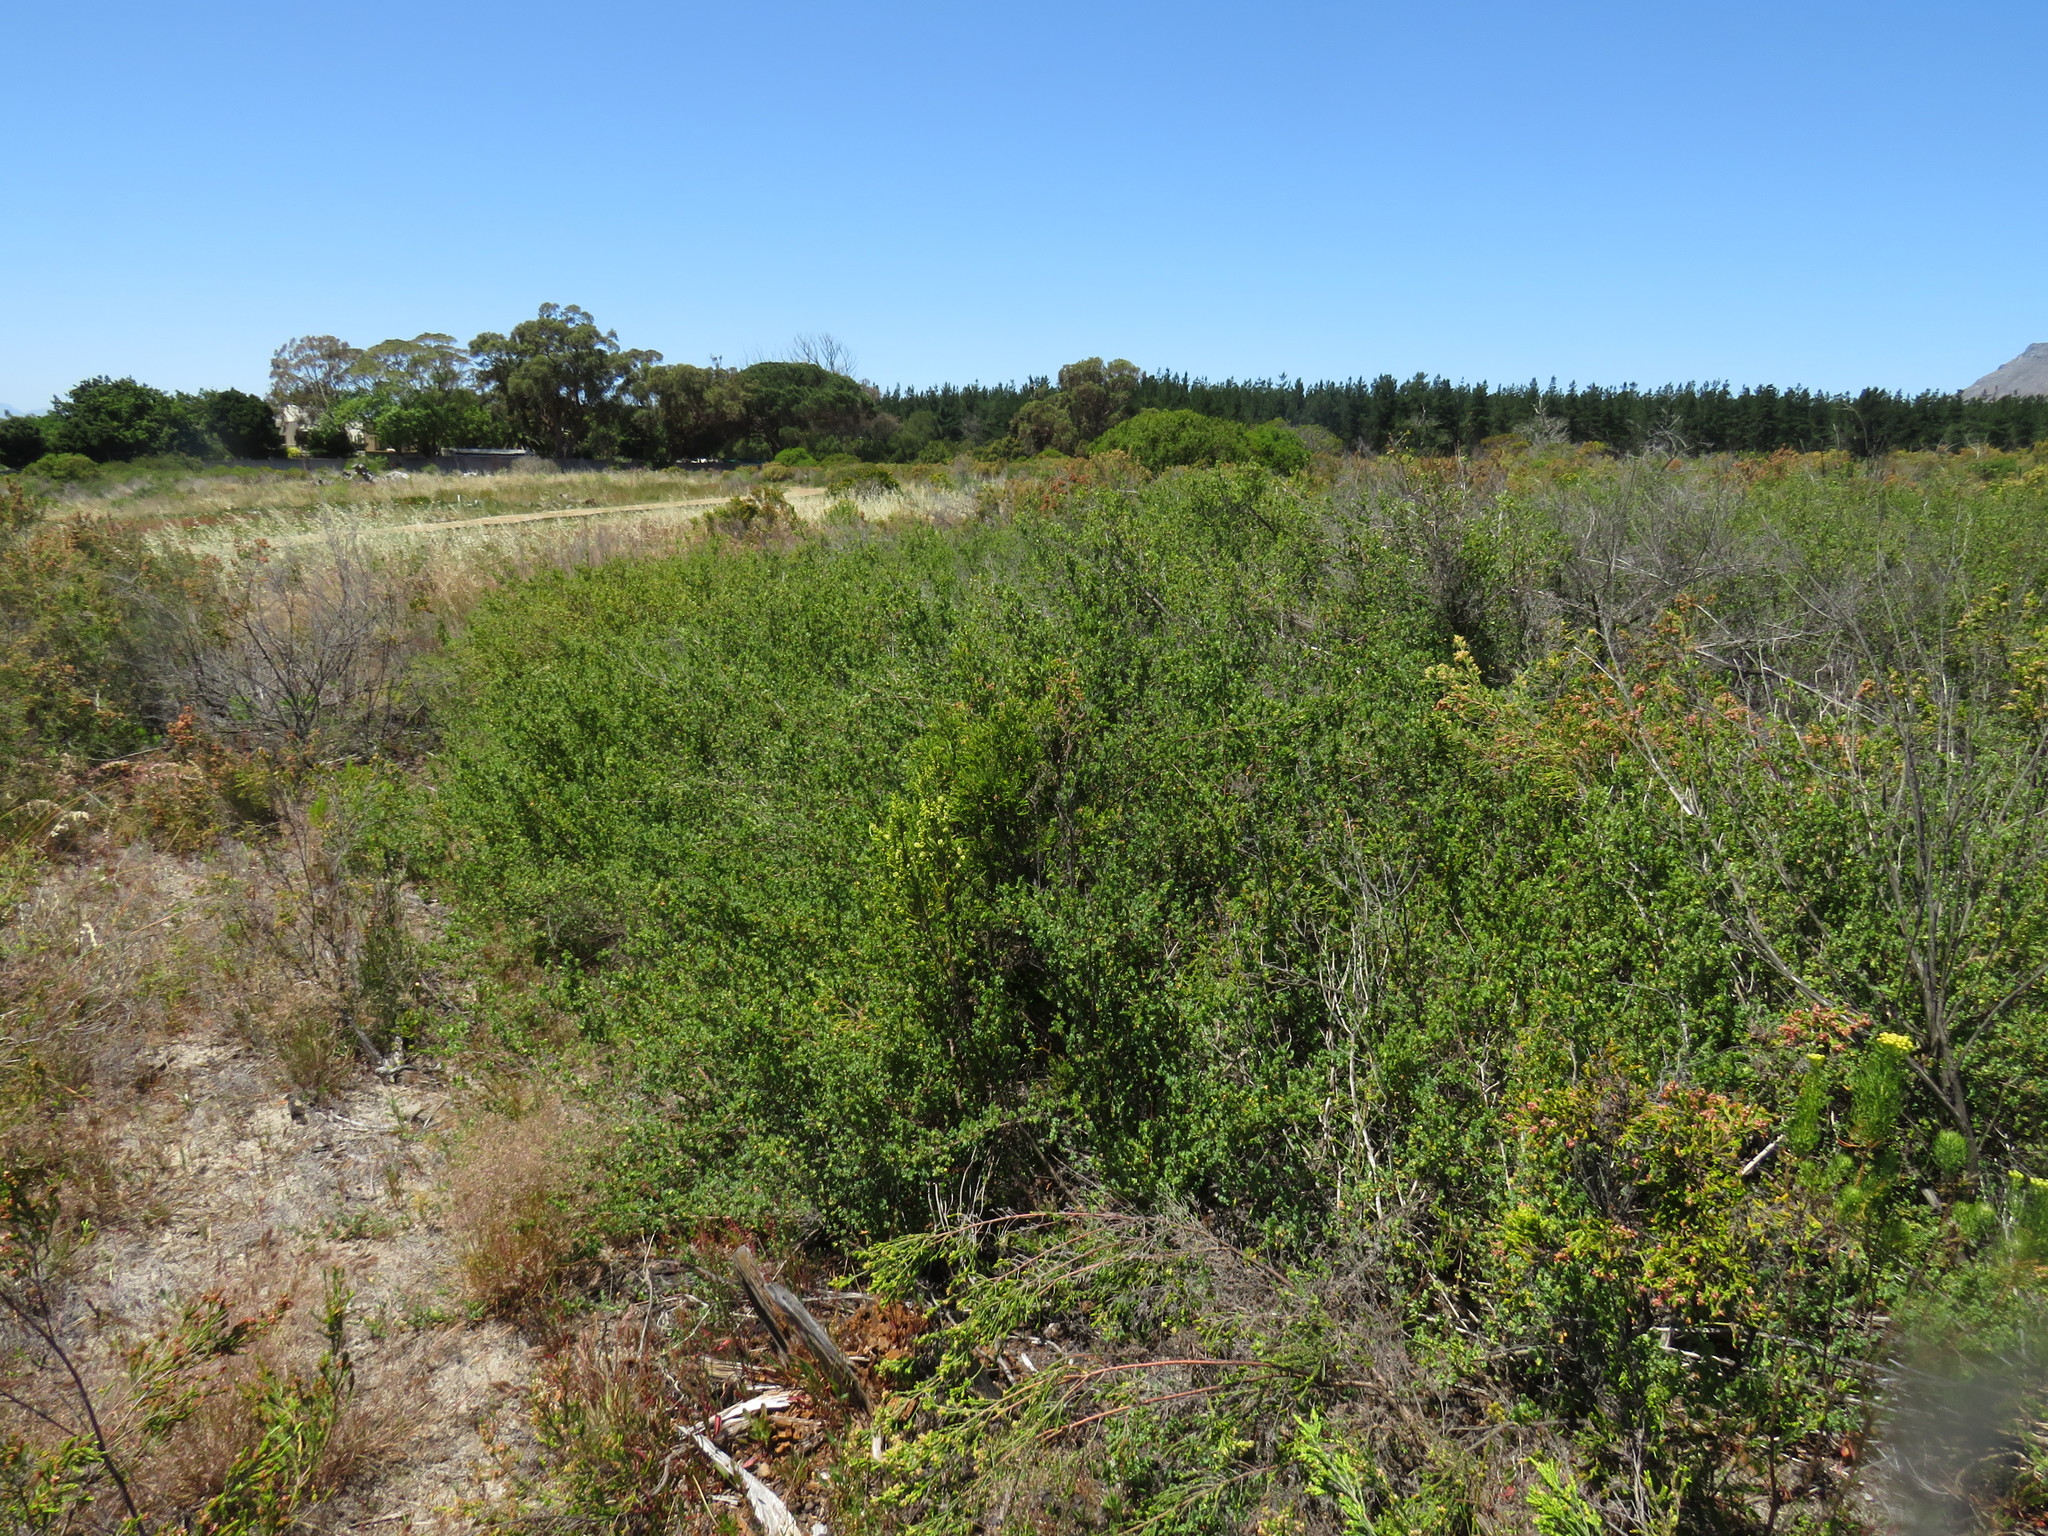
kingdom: Plantae
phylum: Tracheophyta
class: Magnoliopsida
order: Rosales
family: Rosaceae
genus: Cliffortia
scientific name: Cliffortia obcordata
